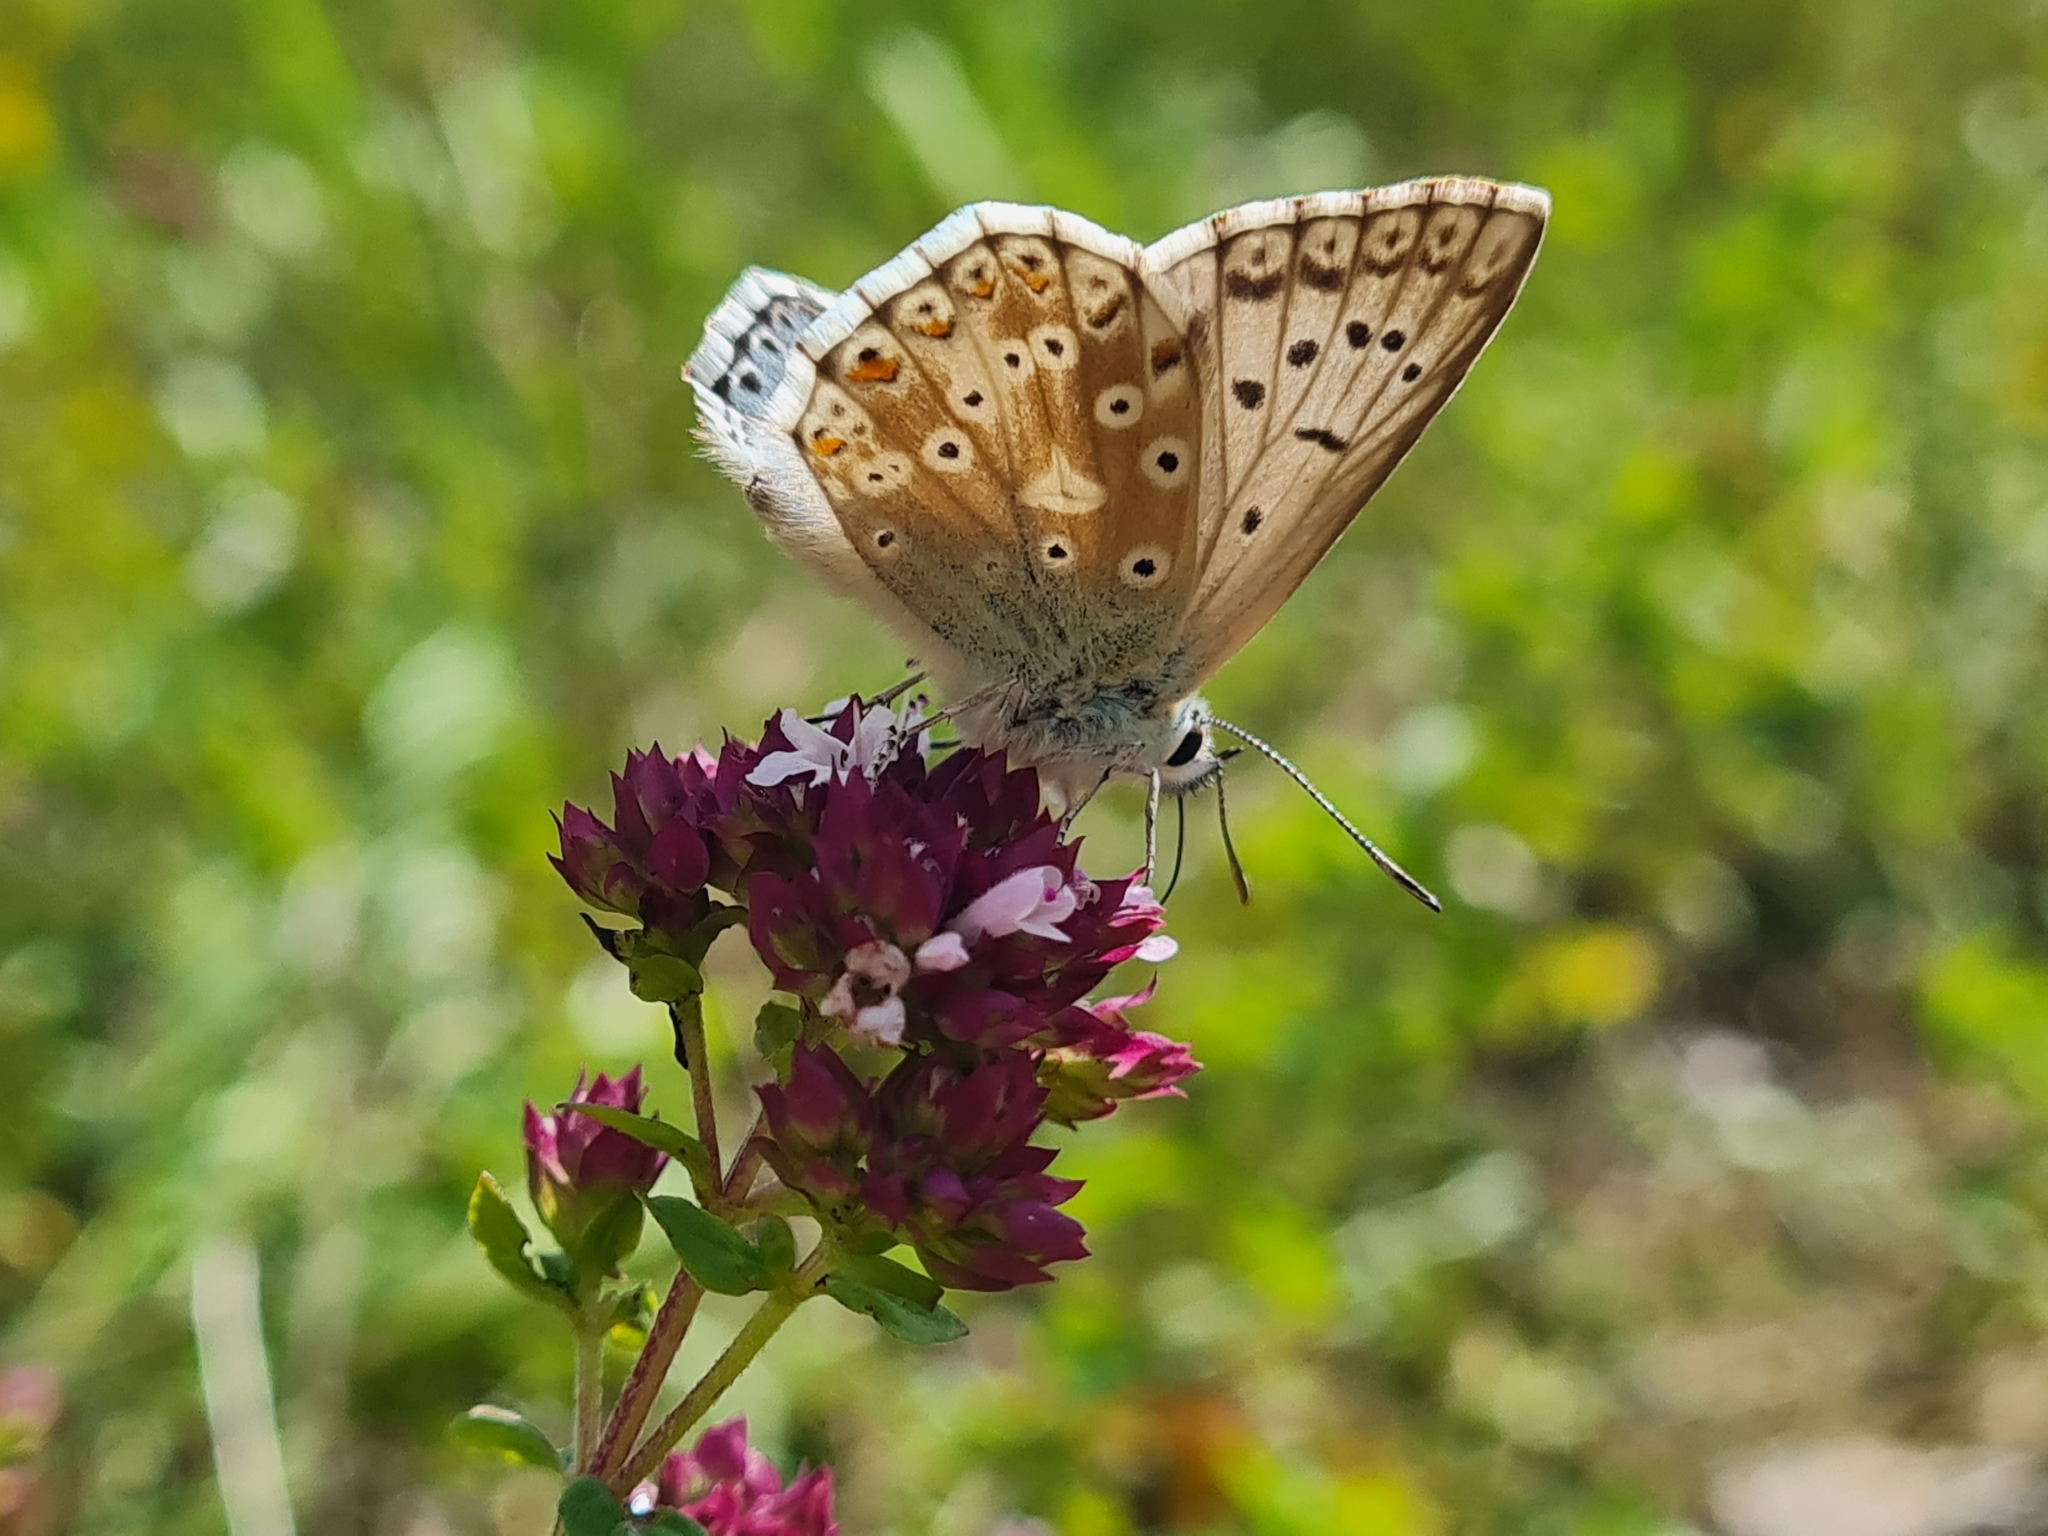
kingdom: Animalia
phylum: Arthropoda
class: Insecta
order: Lepidoptera
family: Lycaenidae
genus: Lysandra
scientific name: Lysandra coridon
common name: Chalkhill blue
